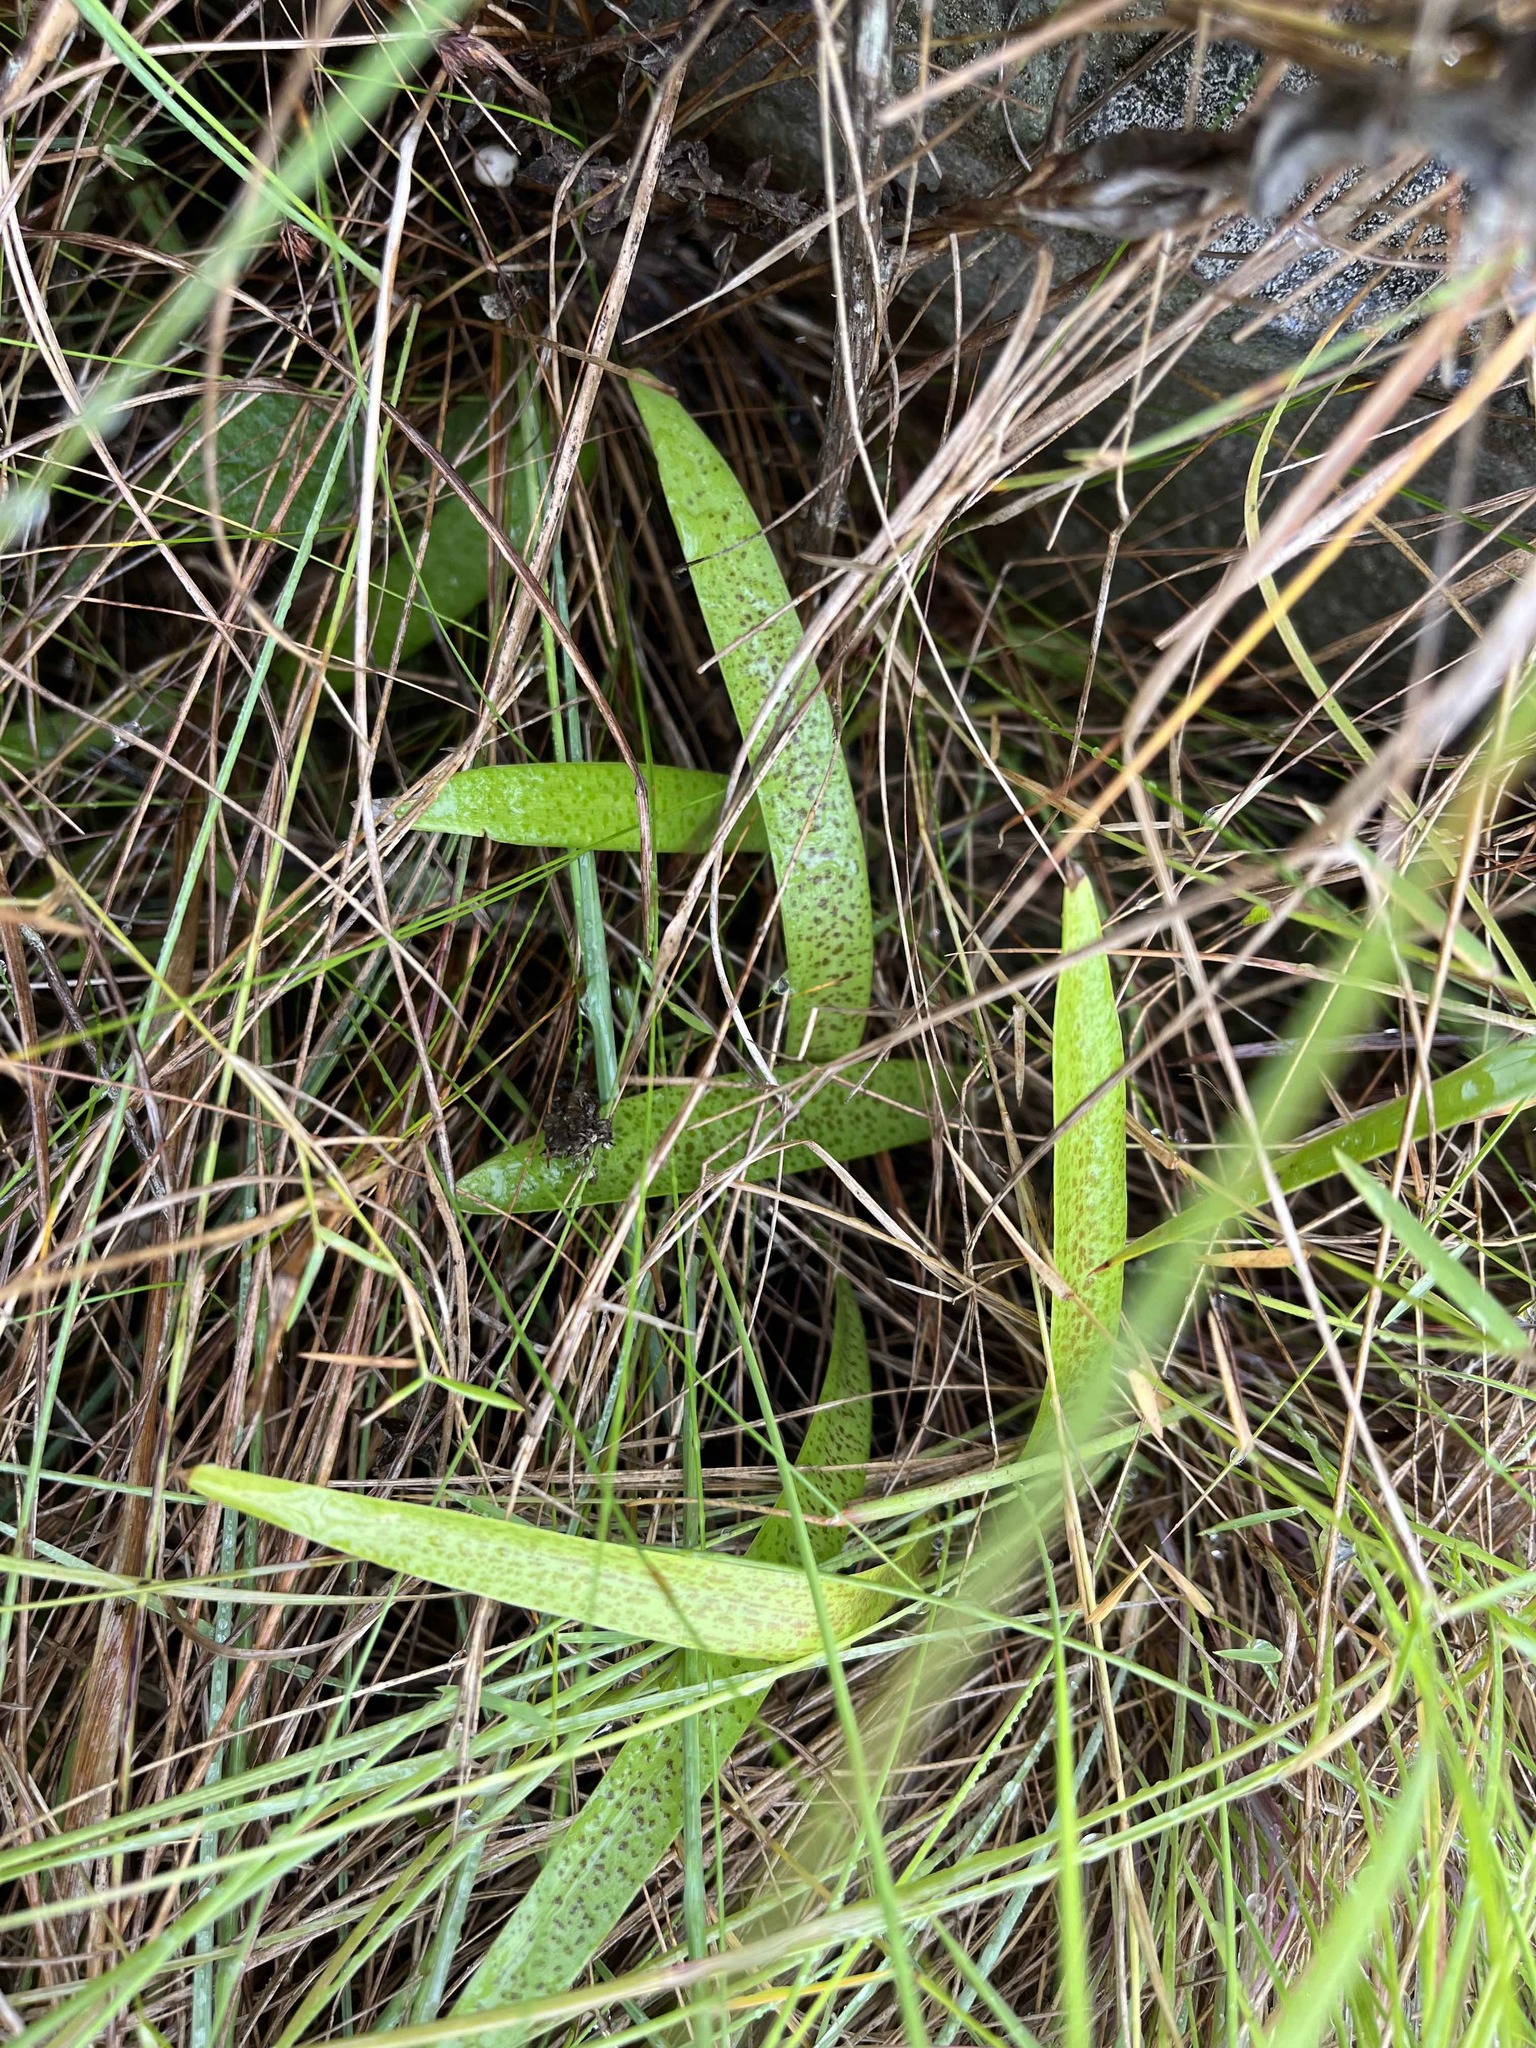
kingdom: Plantae
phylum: Tracheophyta
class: Liliopsida
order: Asparagales
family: Asparagaceae
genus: Ledebouria
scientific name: Ledebouria cooperi
